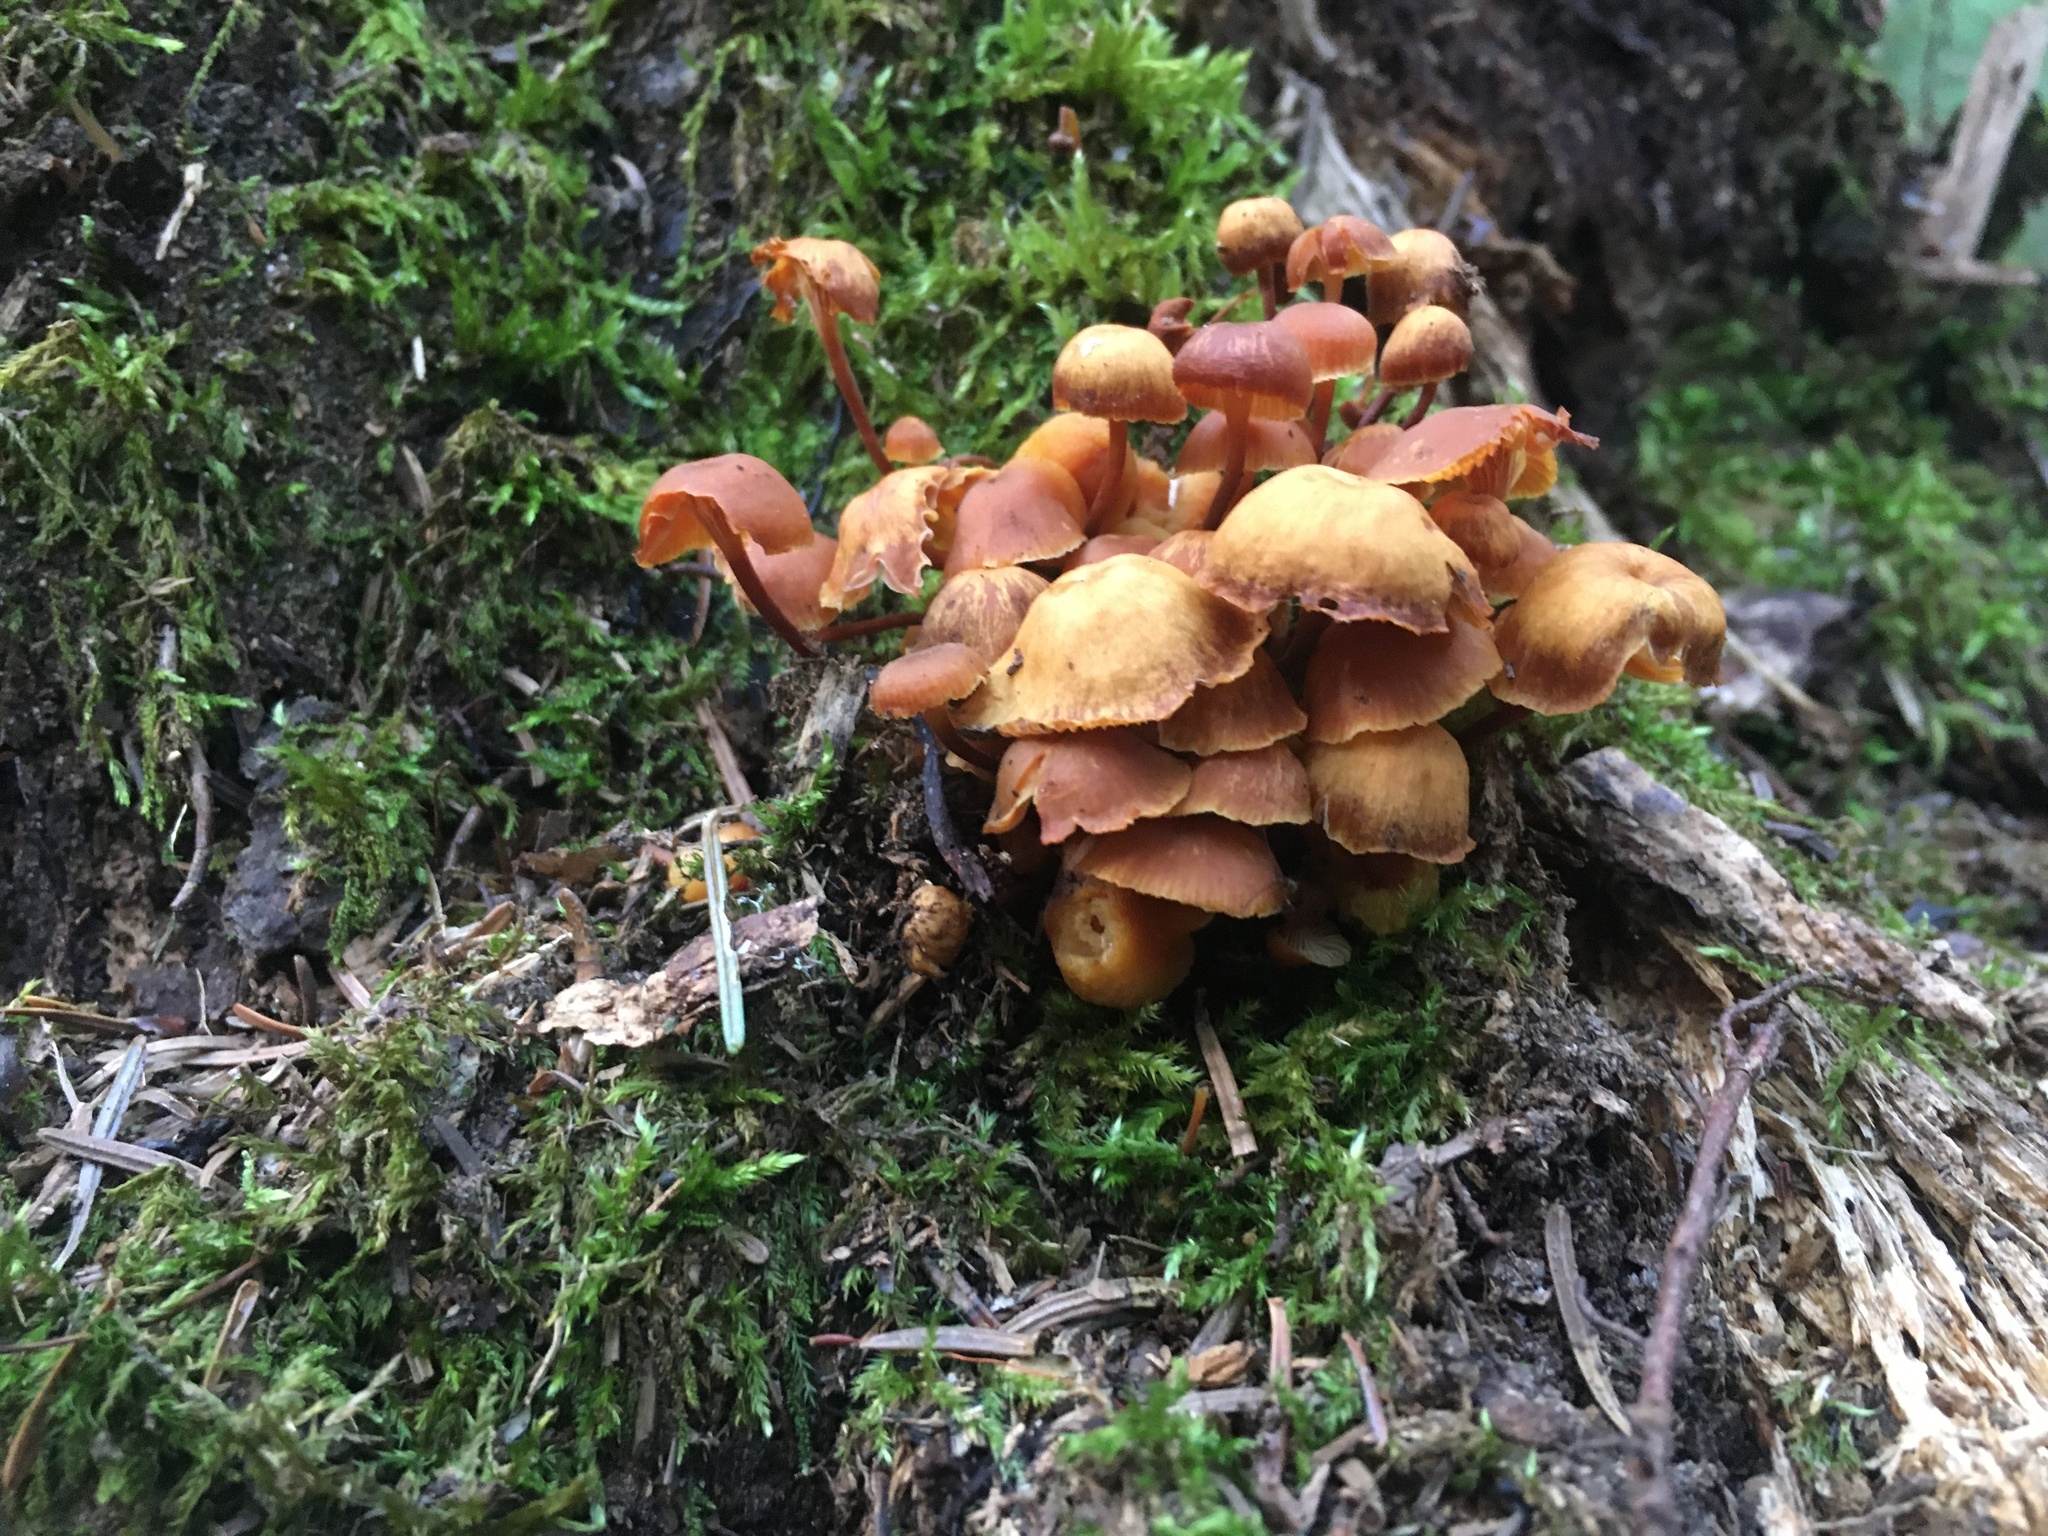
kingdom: Fungi
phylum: Basidiomycota
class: Agaricomycetes
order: Agaricales
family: Mycenaceae
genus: Xeromphalina
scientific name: Xeromphalina campanella
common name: Pinewood gingertail
